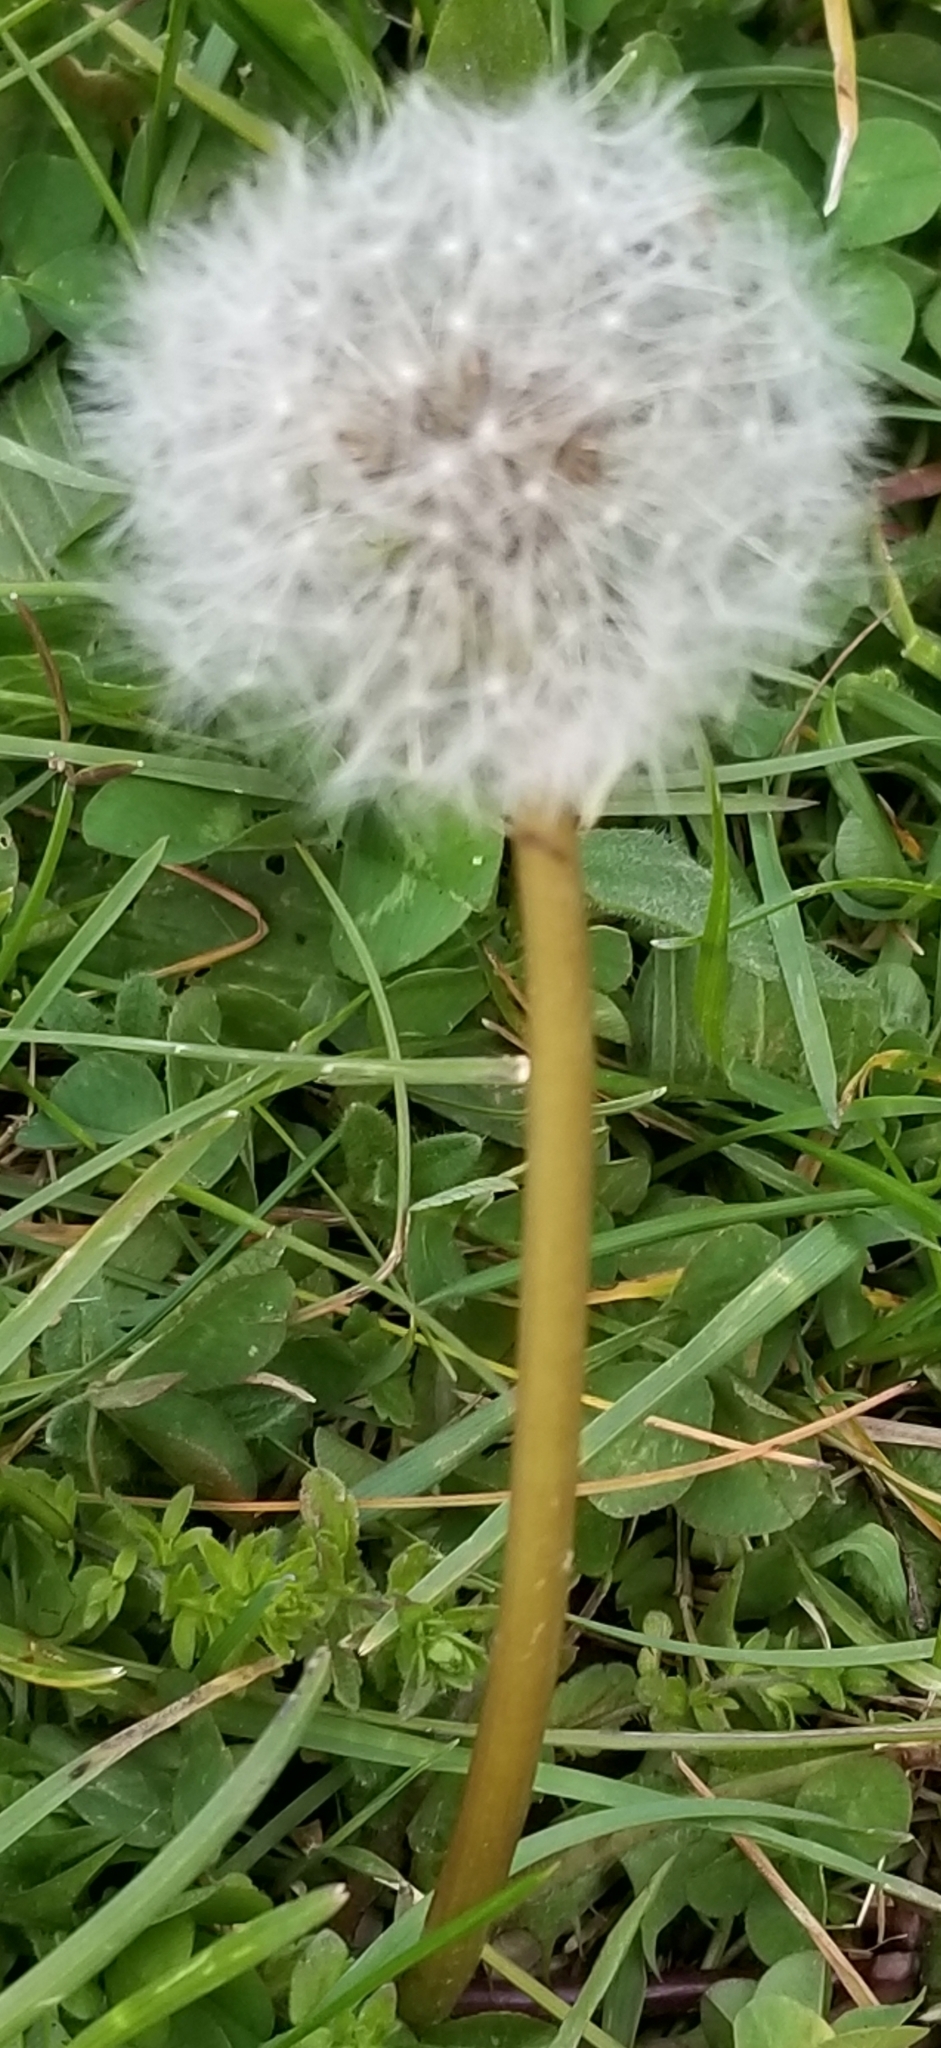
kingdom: Plantae
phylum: Tracheophyta
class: Magnoliopsida
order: Asterales
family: Asteraceae
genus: Taraxacum
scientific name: Taraxacum officinale
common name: Common dandelion
